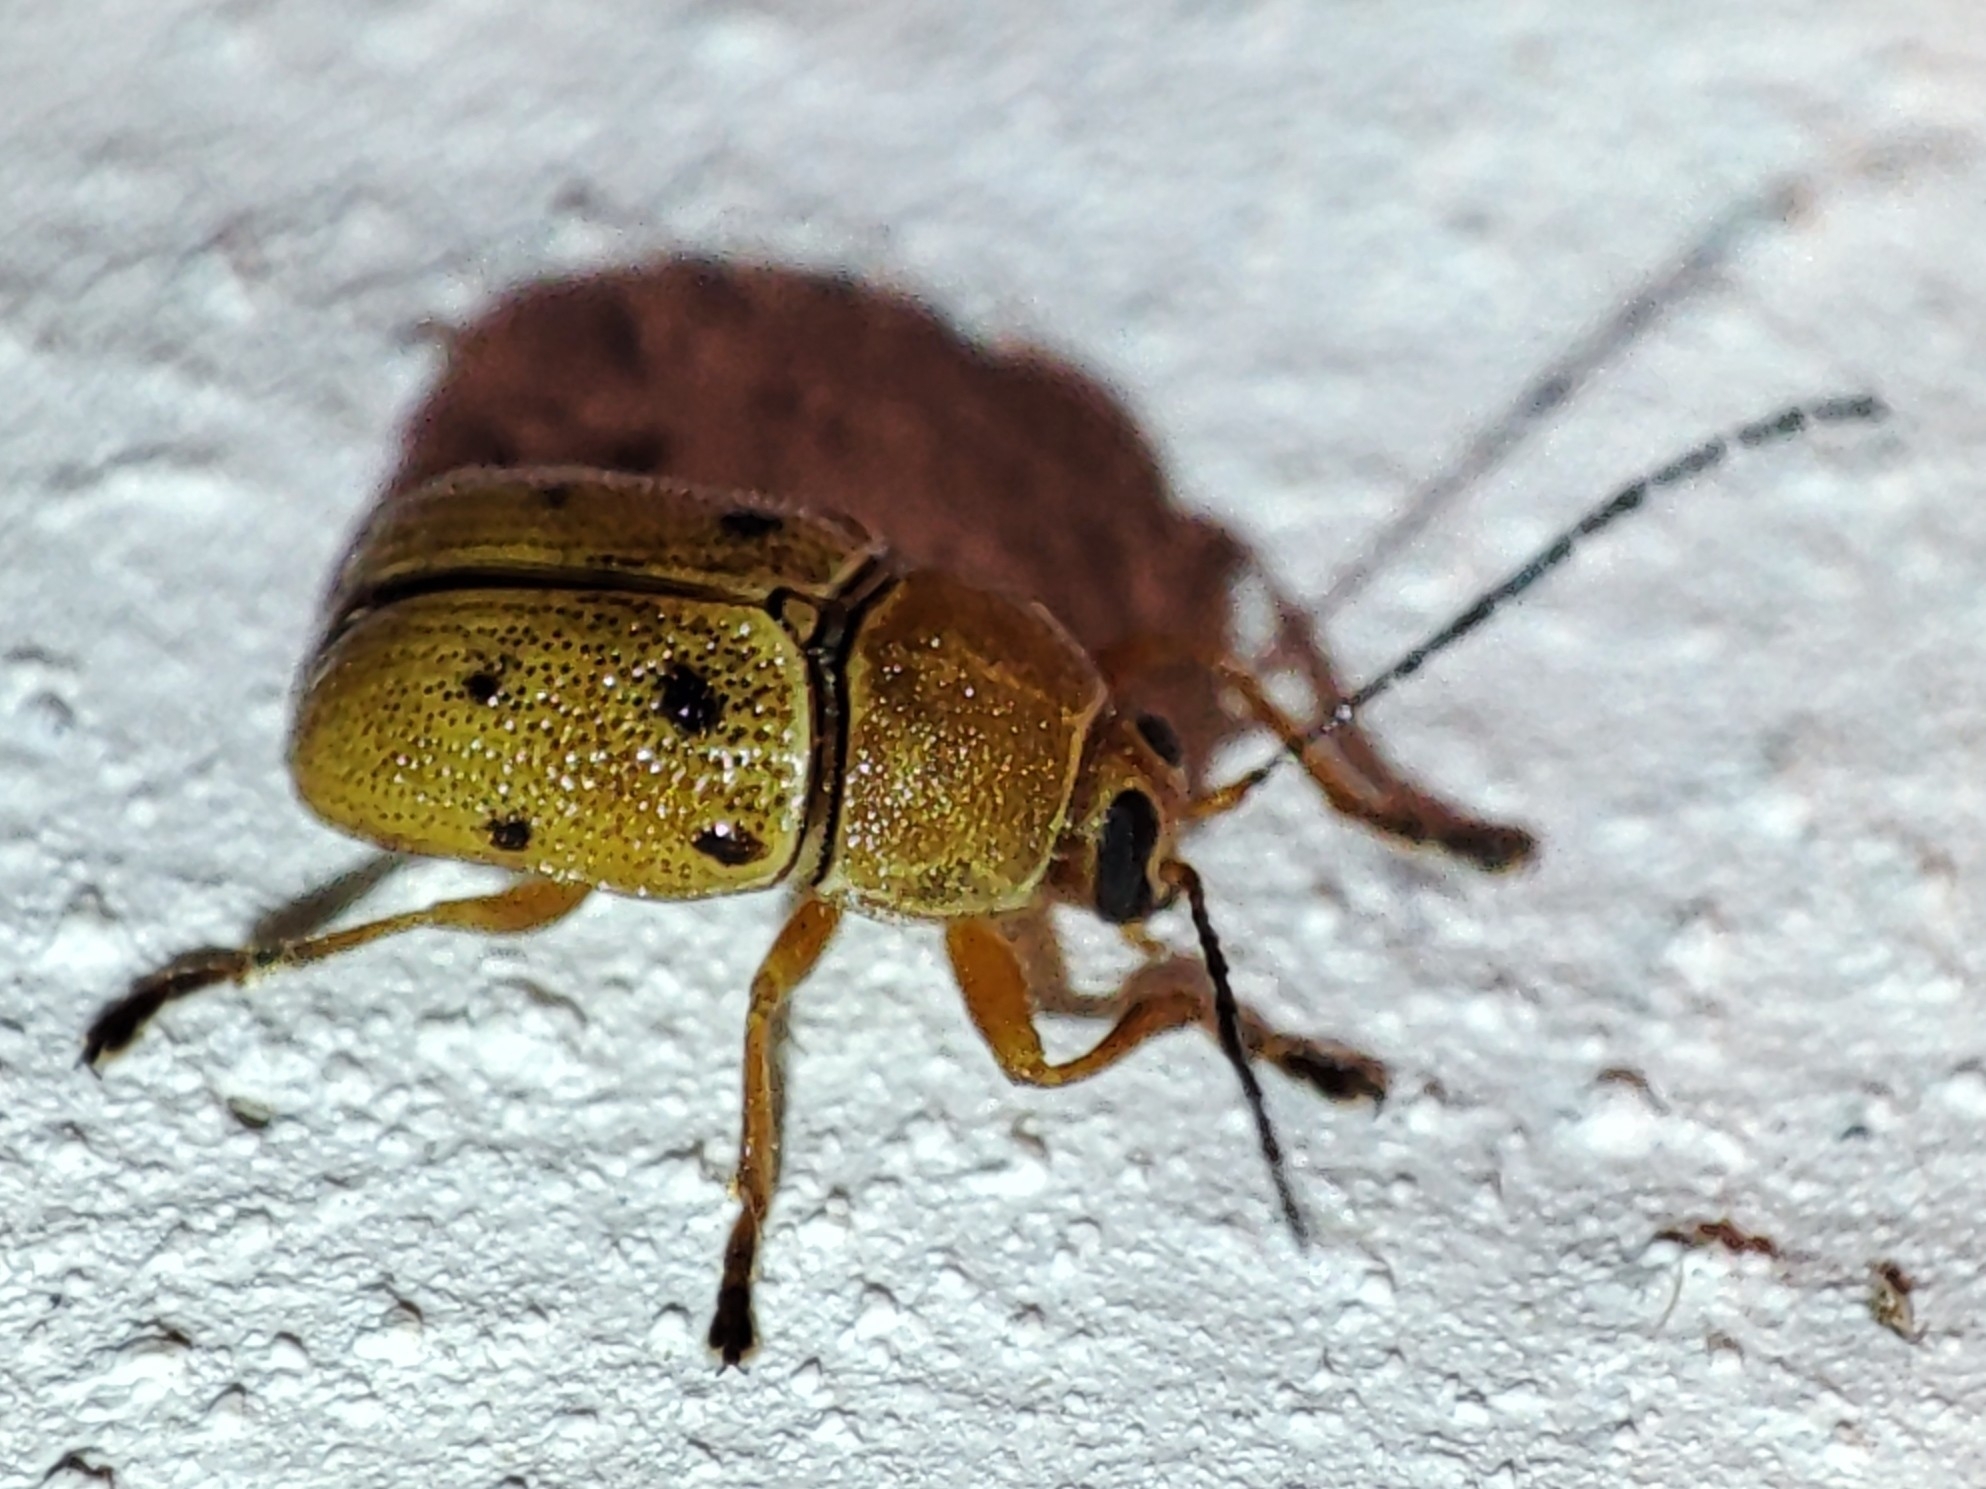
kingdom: Animalia
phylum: Arthropoda
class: Insecta
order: Coleoptera
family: Chrysomelidae
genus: Cryptocephalus
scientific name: Cryptocephalus octomaculatus
